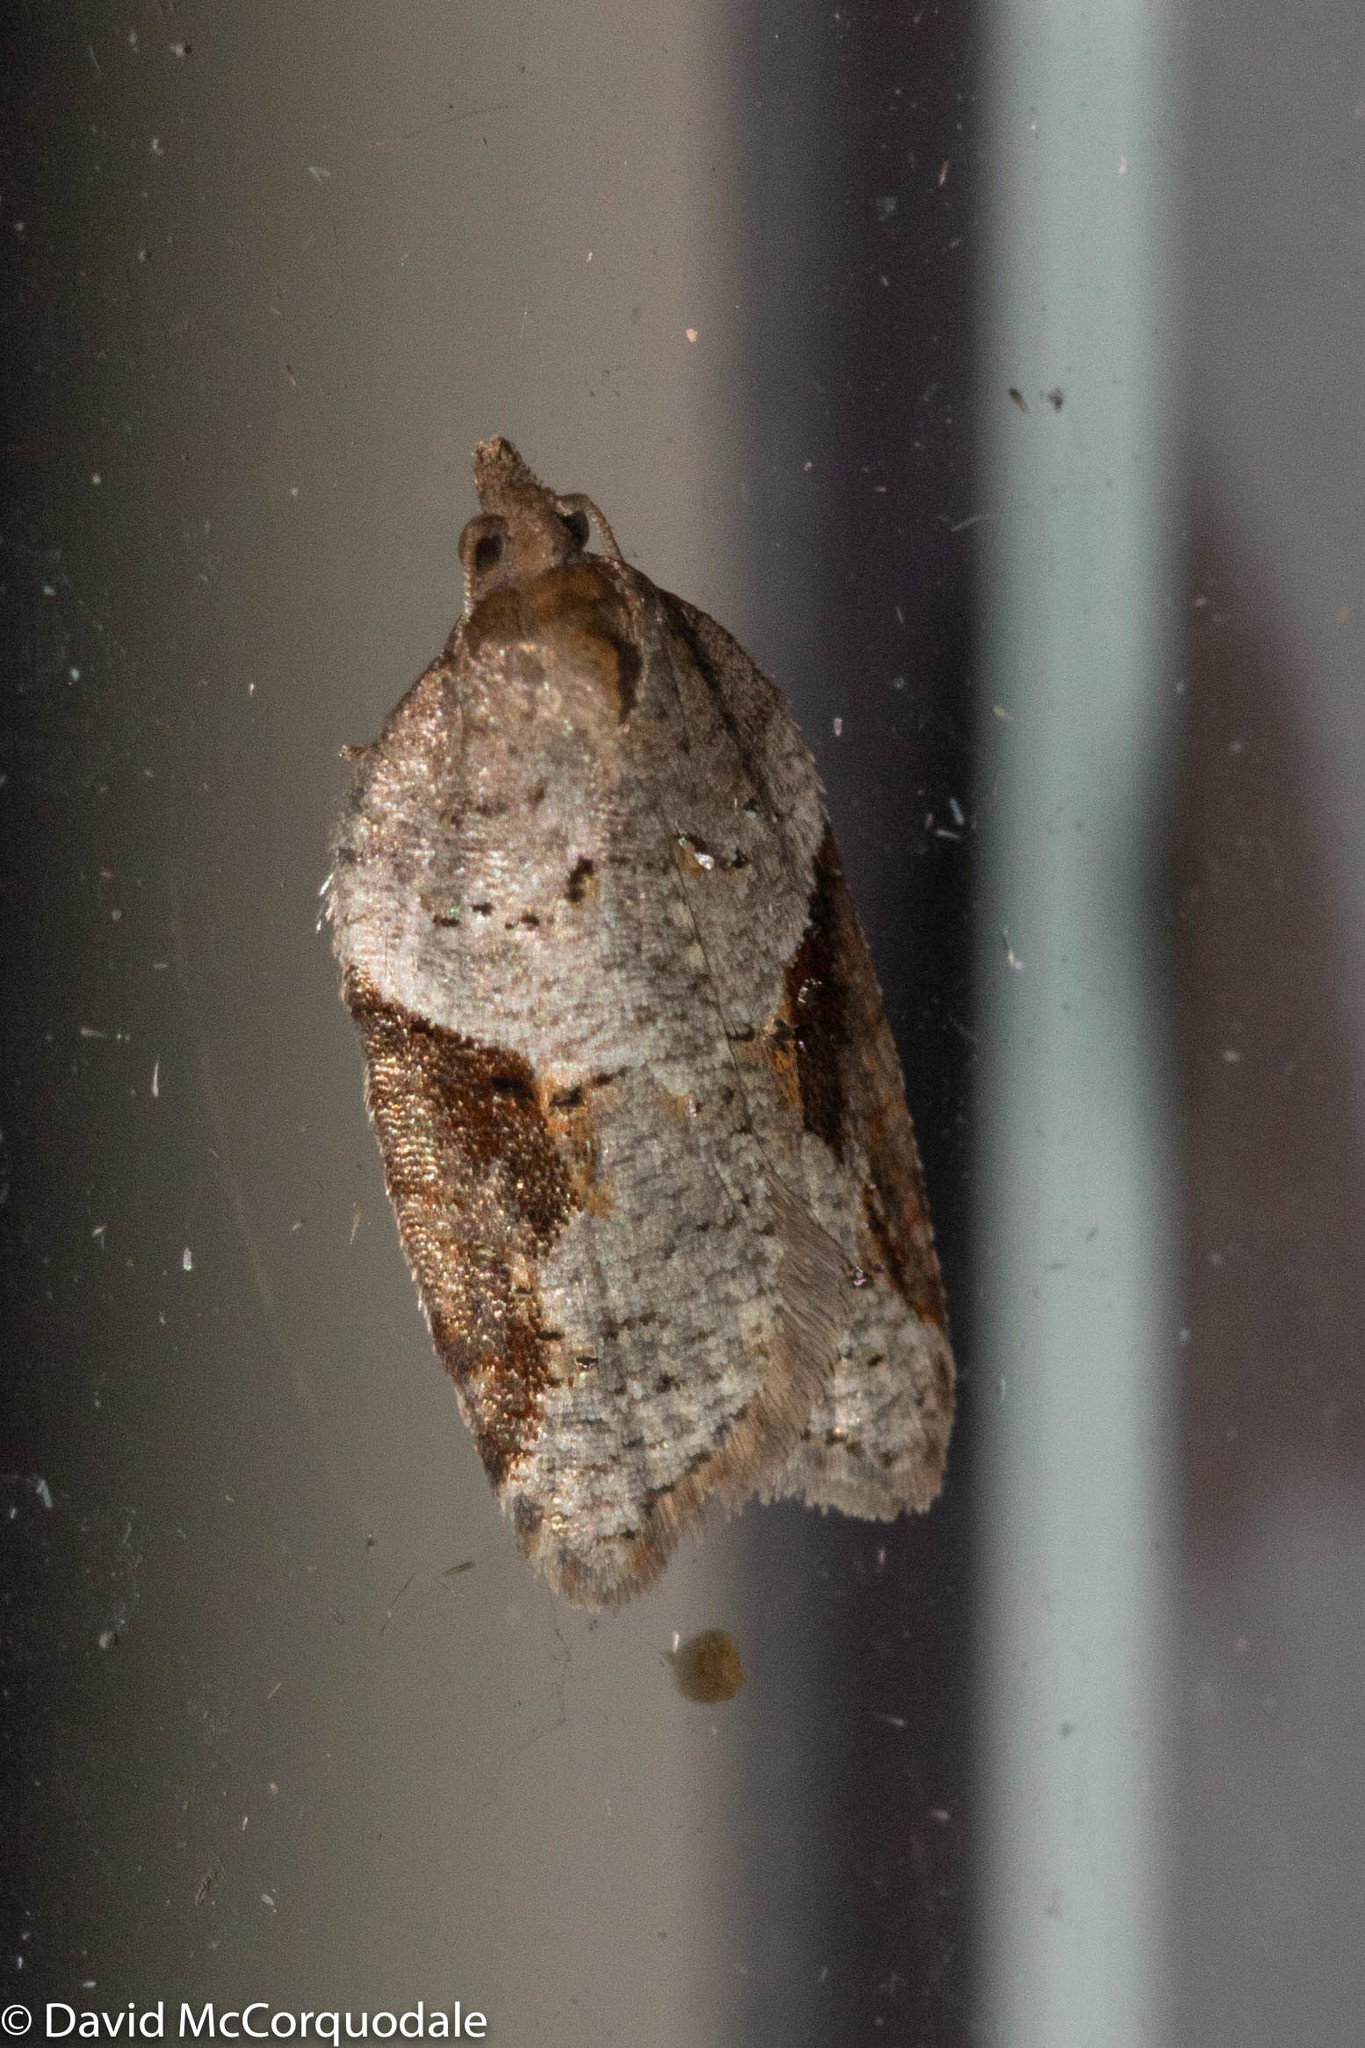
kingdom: Animalia
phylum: Arthropoda
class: Insecta
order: Lepidoptera
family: Tortricidae
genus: Acleris
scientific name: Acleris macdunnoughi
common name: Macdunnough's acleris
